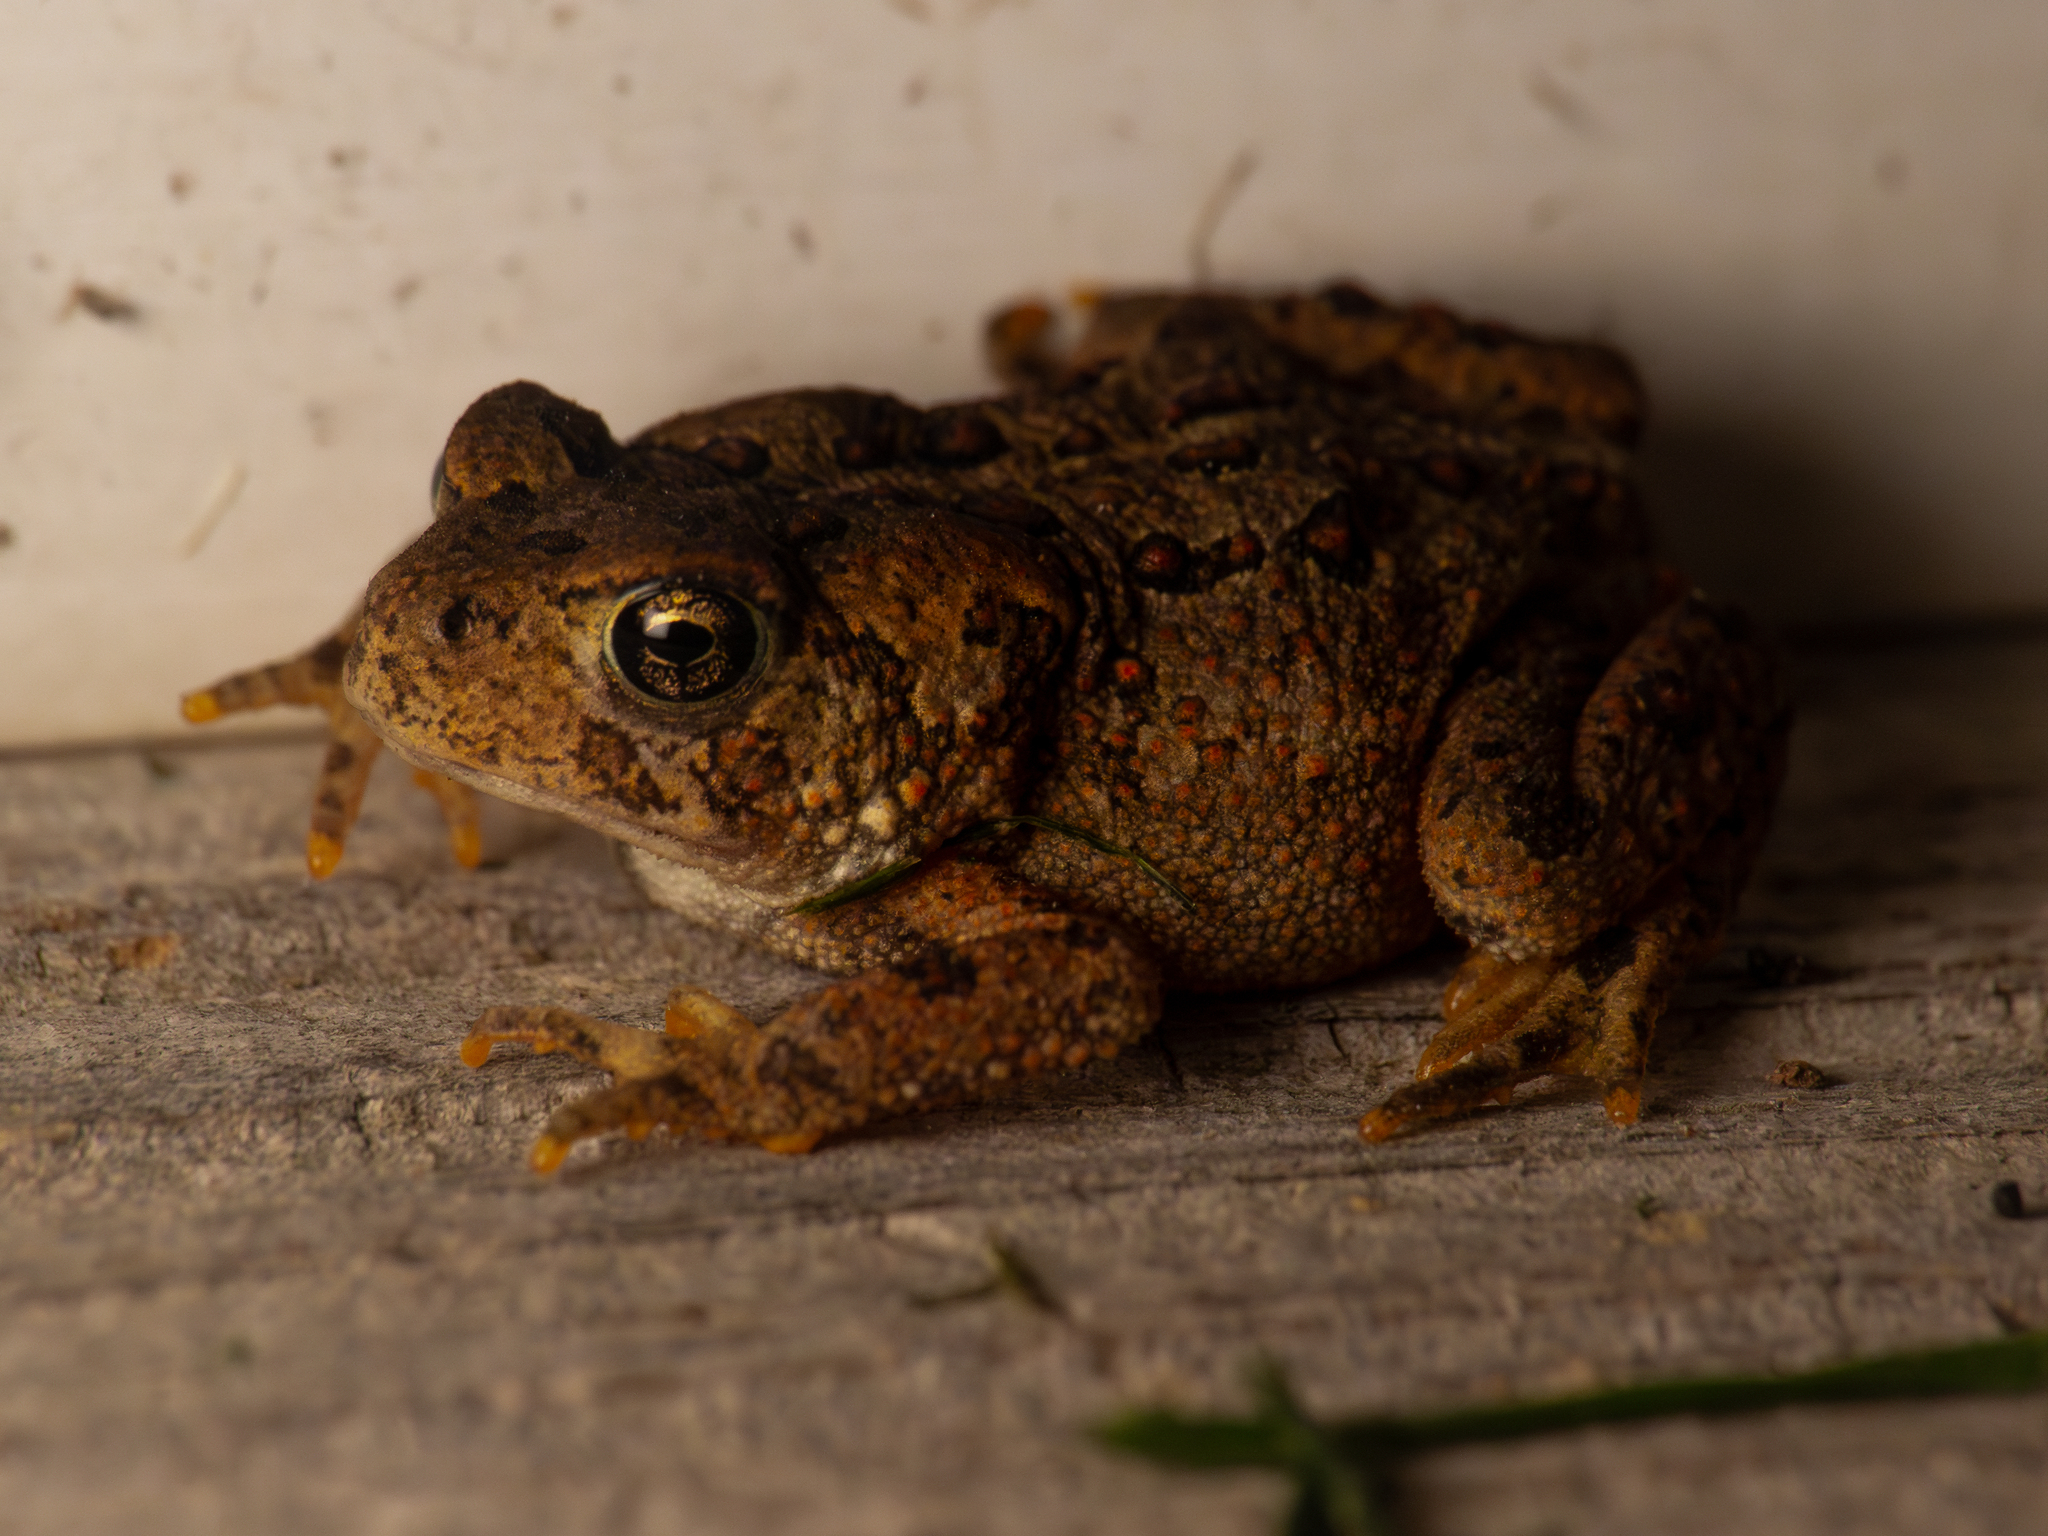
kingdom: Animalia
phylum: Chordata
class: Amphibia
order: Anura
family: Bufonidae
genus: Anaxyrus
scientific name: Anaxyrus americanus
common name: American toad
